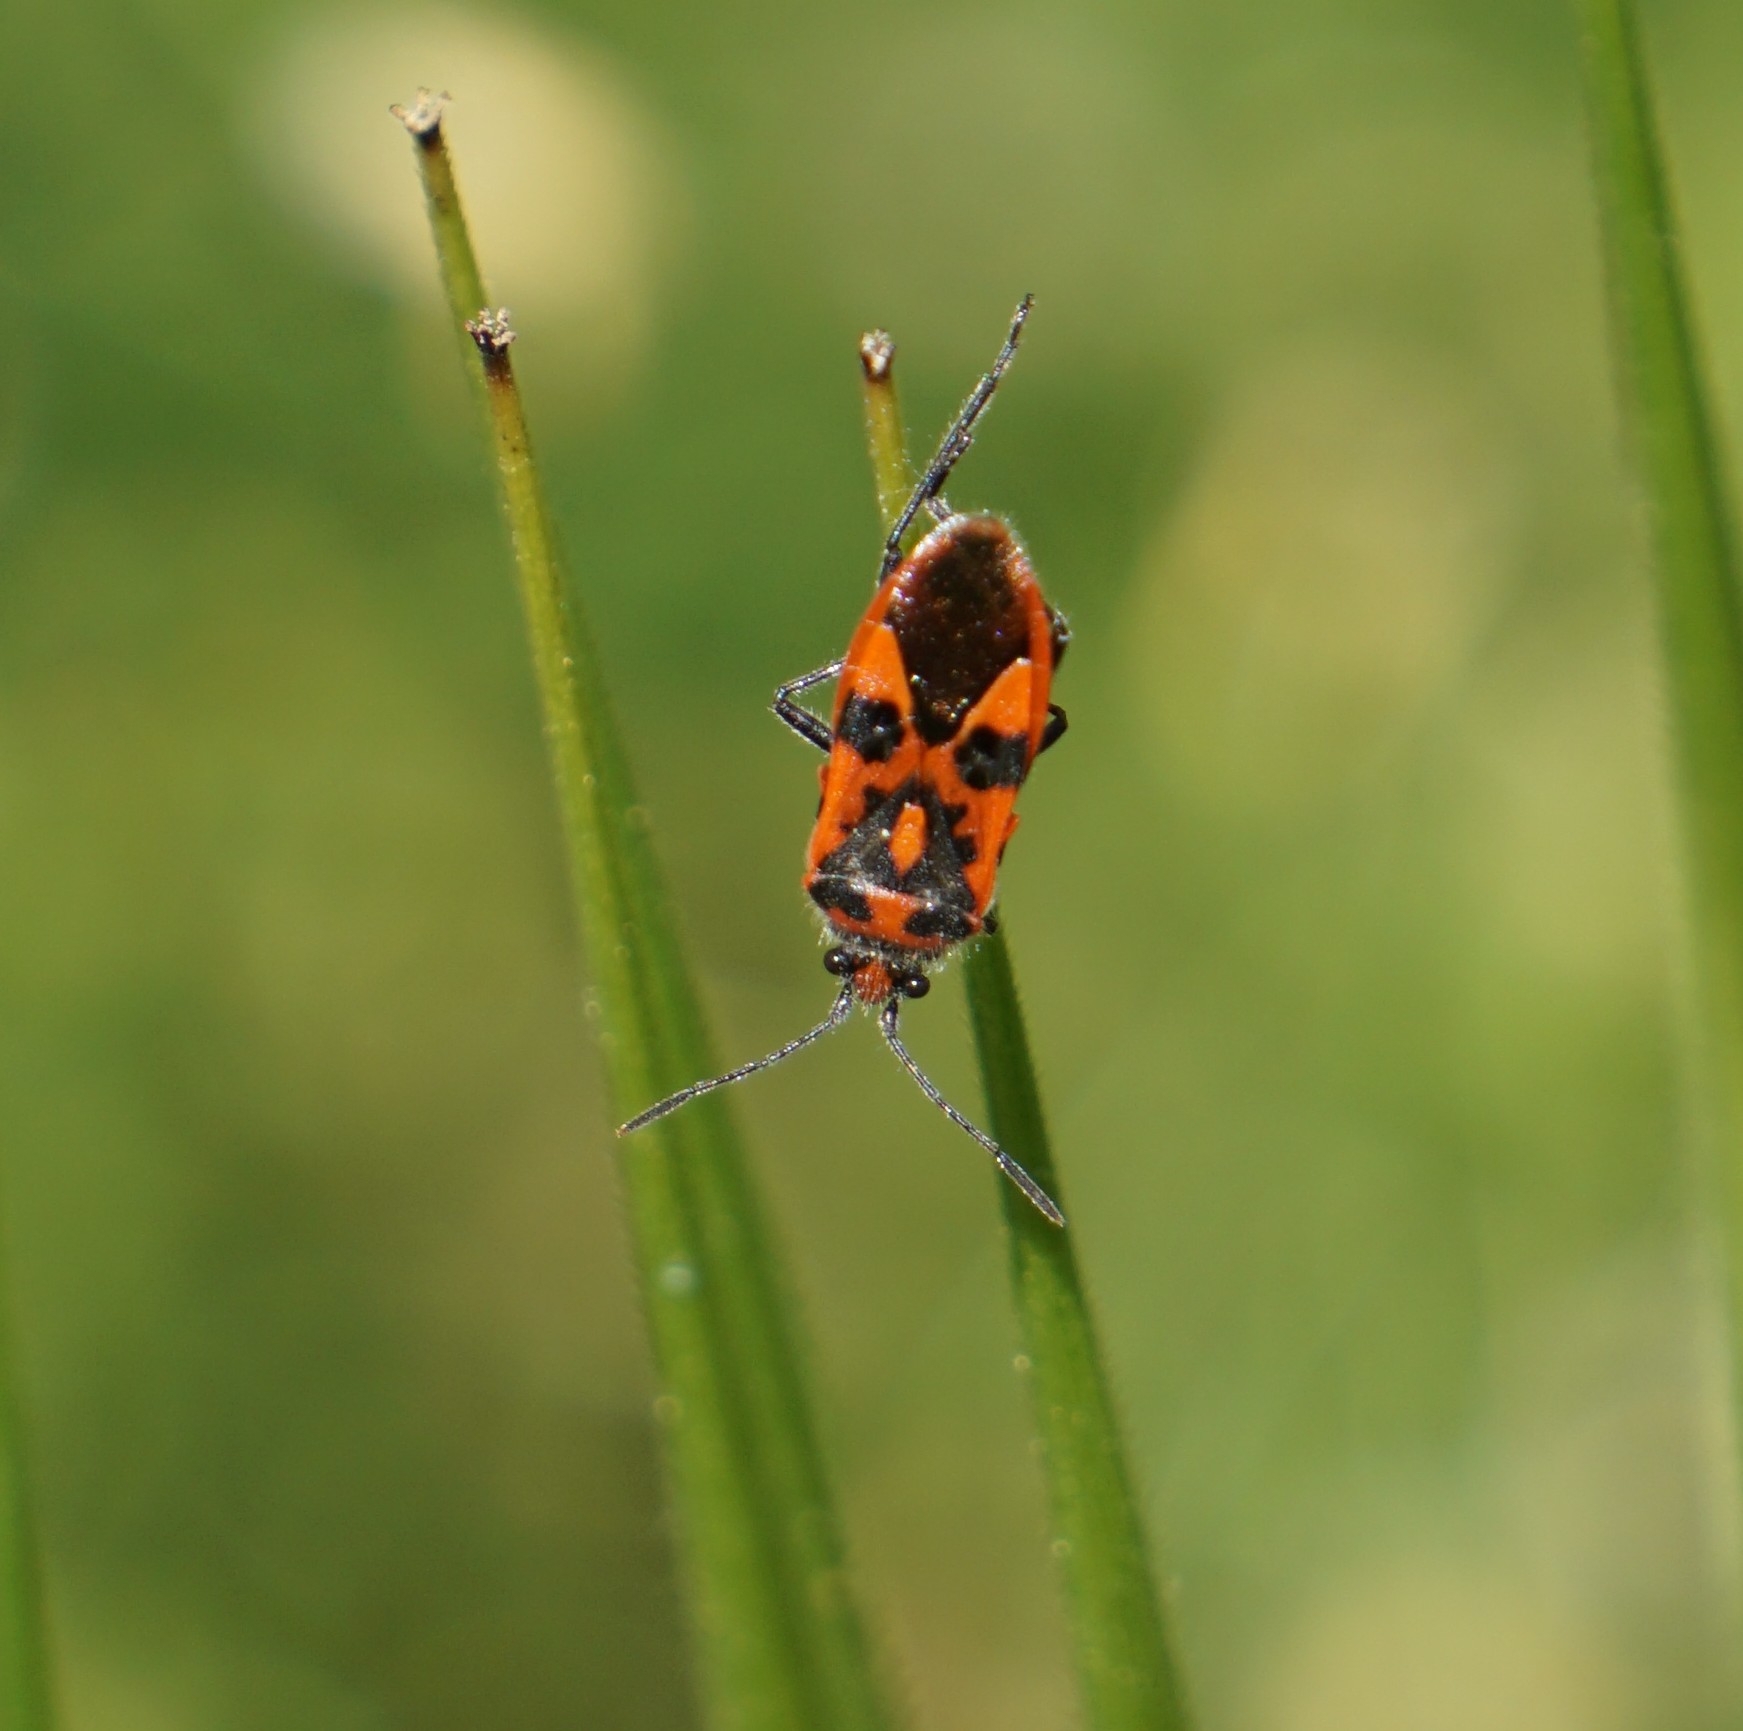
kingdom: Animalia
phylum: Arthropoda
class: Insecta
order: Hemiptera
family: Rhopalidae
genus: Corizus
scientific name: Corizus hyoscyami
